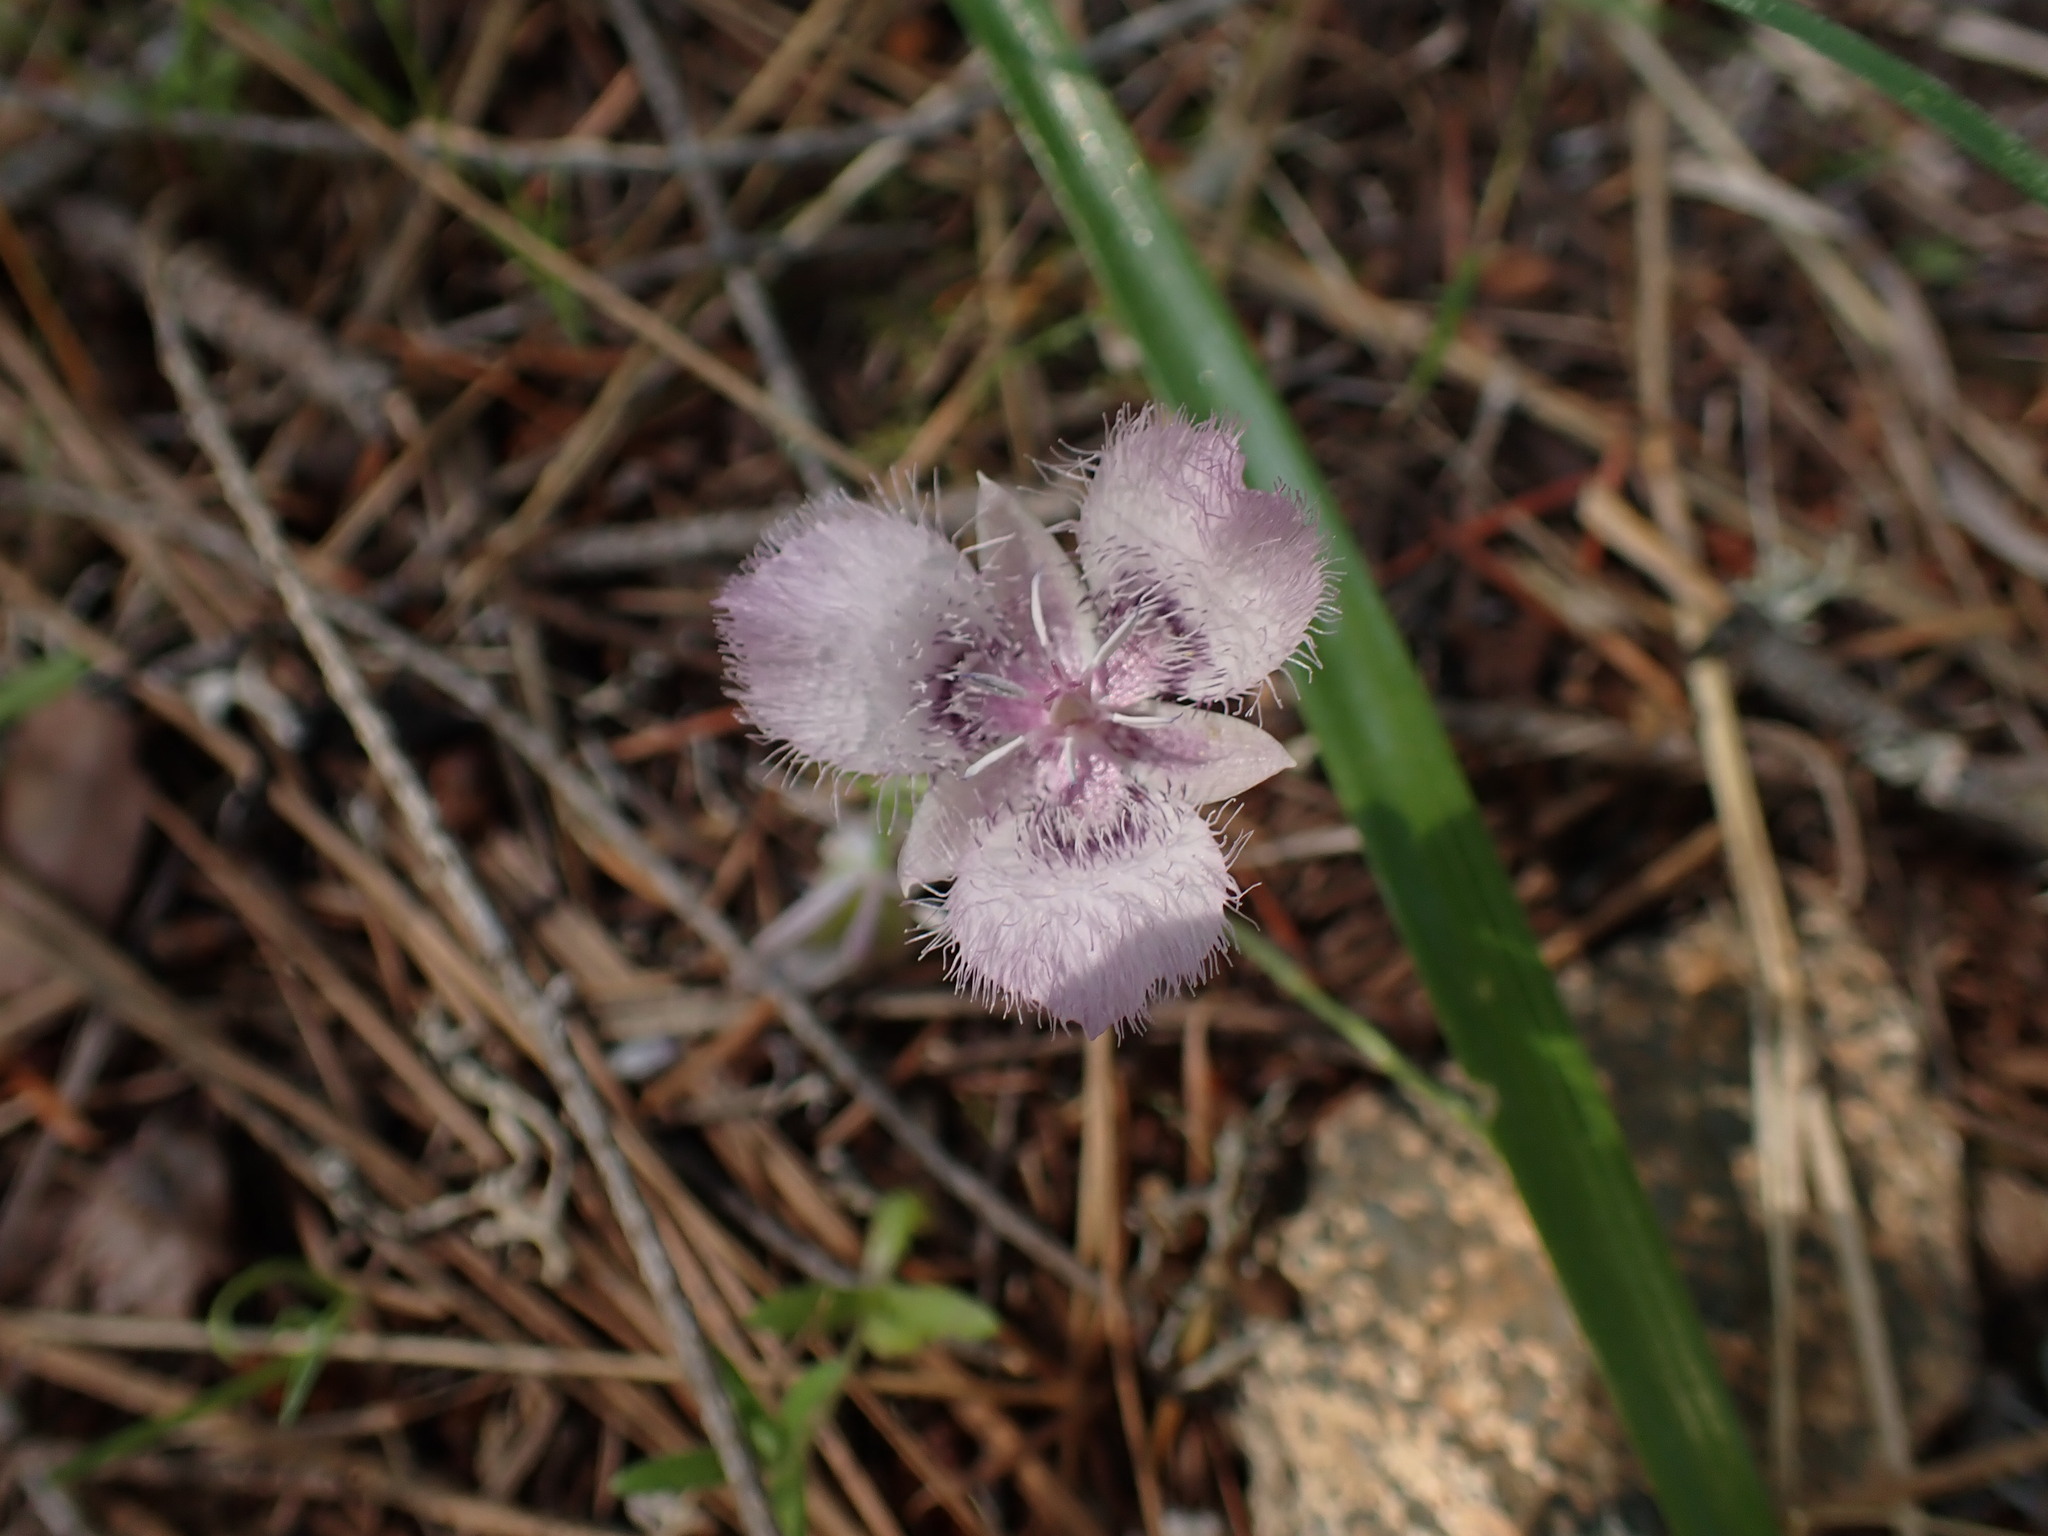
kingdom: Plantae
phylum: Tracheophyta
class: Liliopsida
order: Liliales
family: Liliaceae
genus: Calochortus
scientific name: Calochortus tolmiei
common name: Pussy-ears
